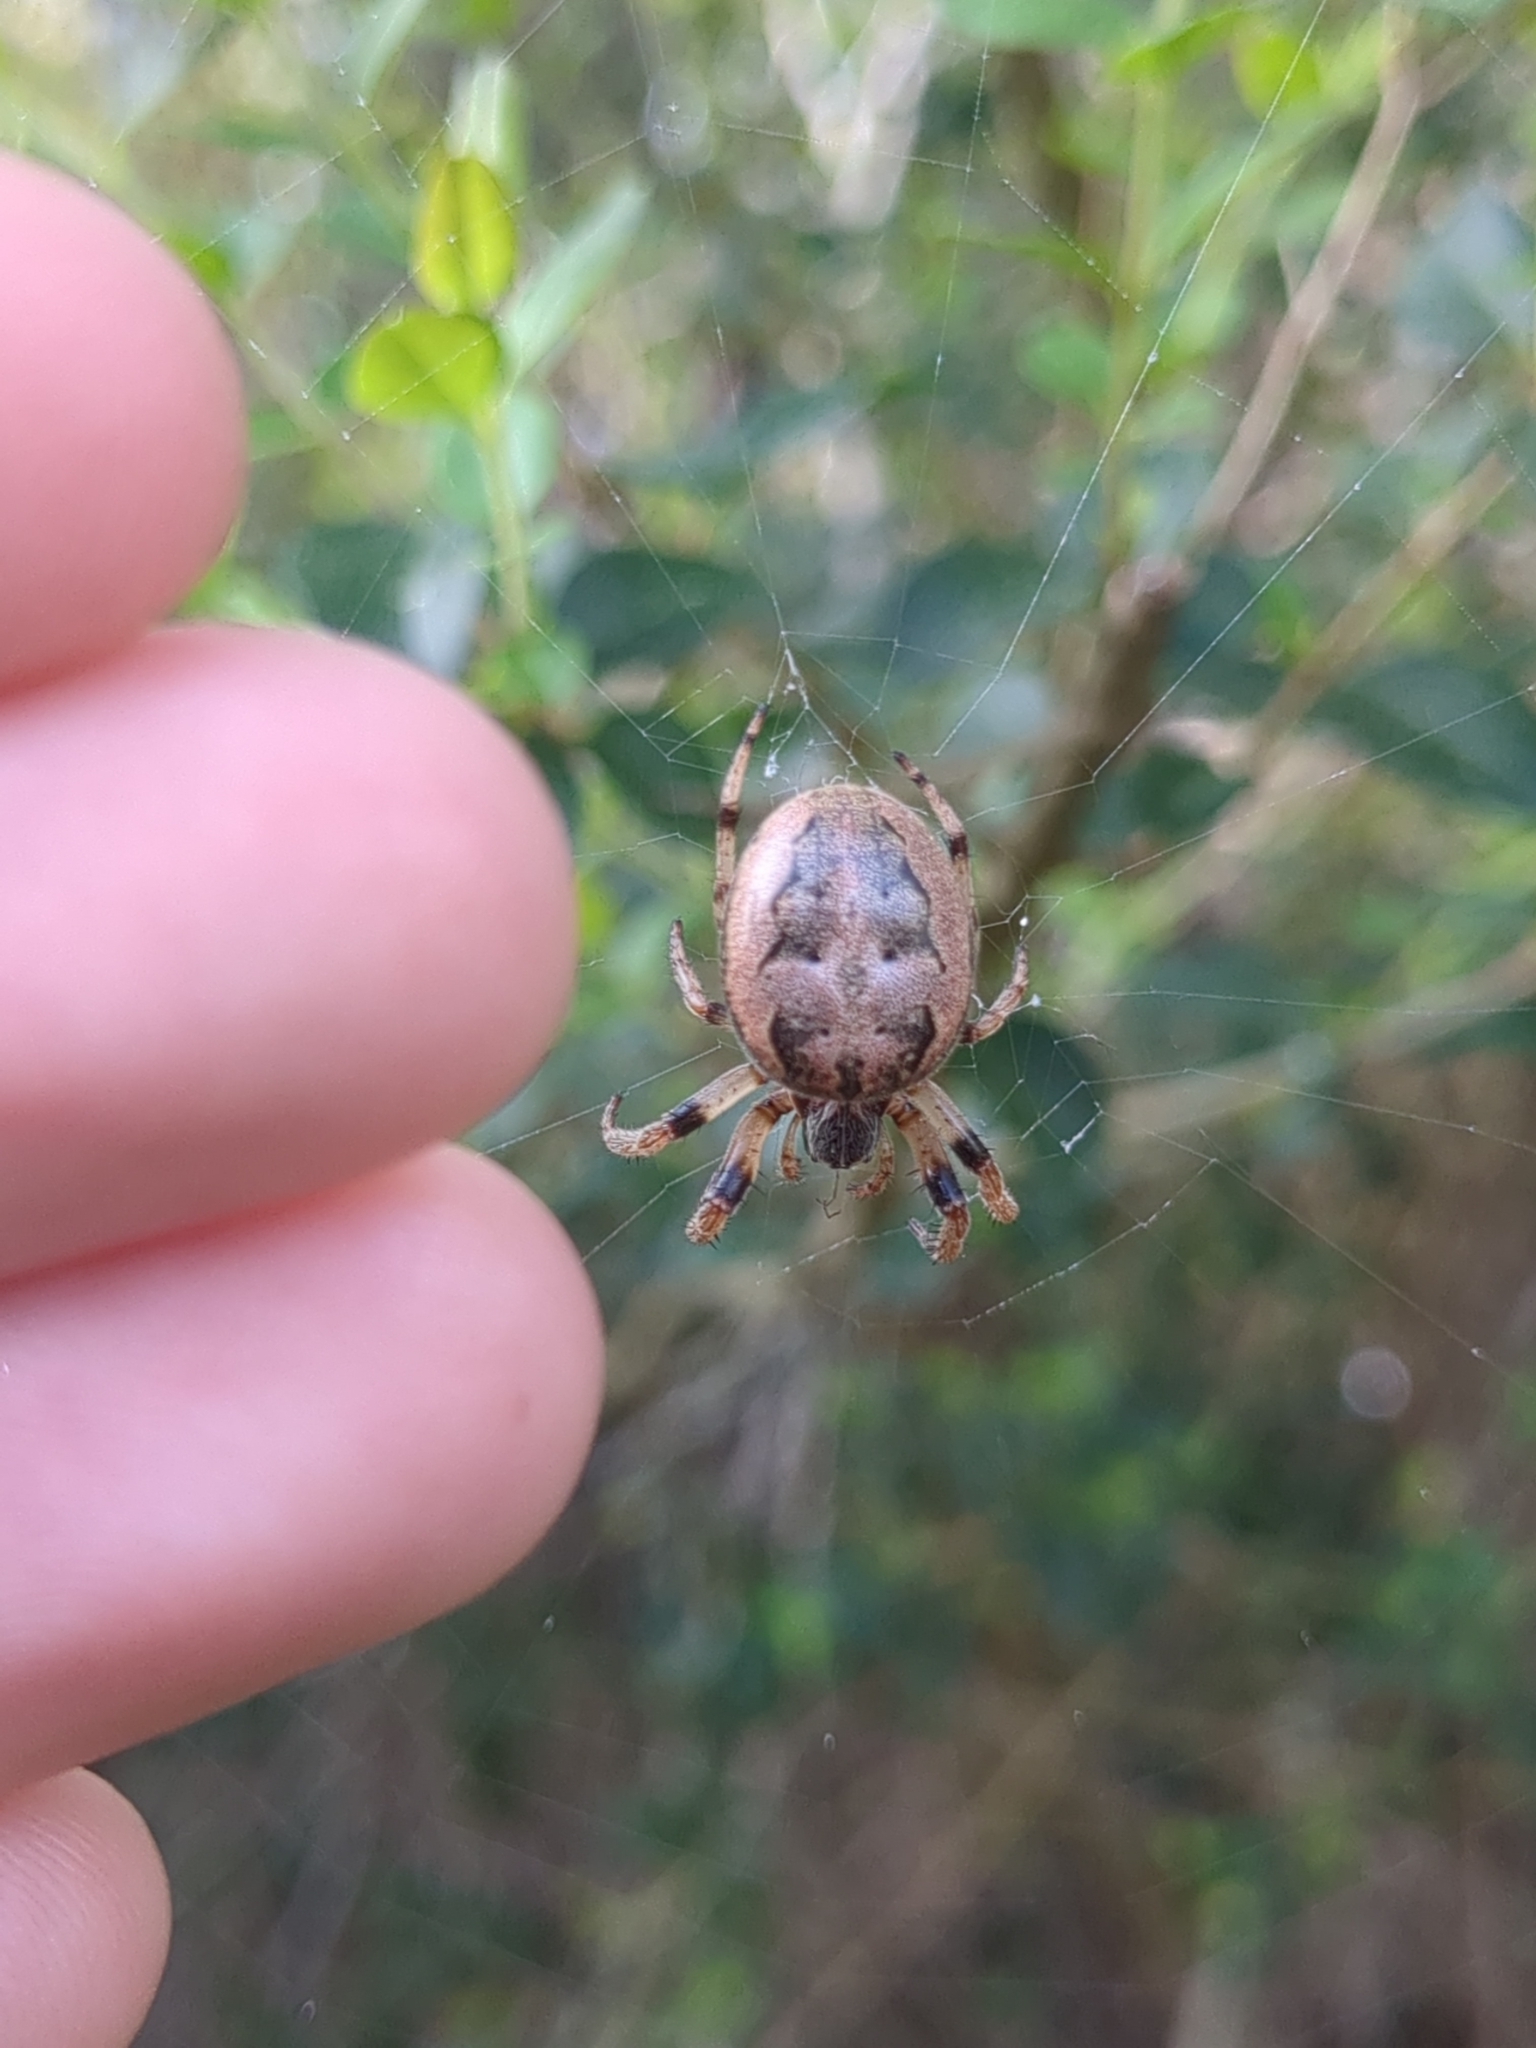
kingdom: Animalia
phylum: Arthropoda
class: Arachnida
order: Araneae
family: Araneidae
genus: Larinioides
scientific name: Larinioides cornutus
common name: Furrow orbweaver
